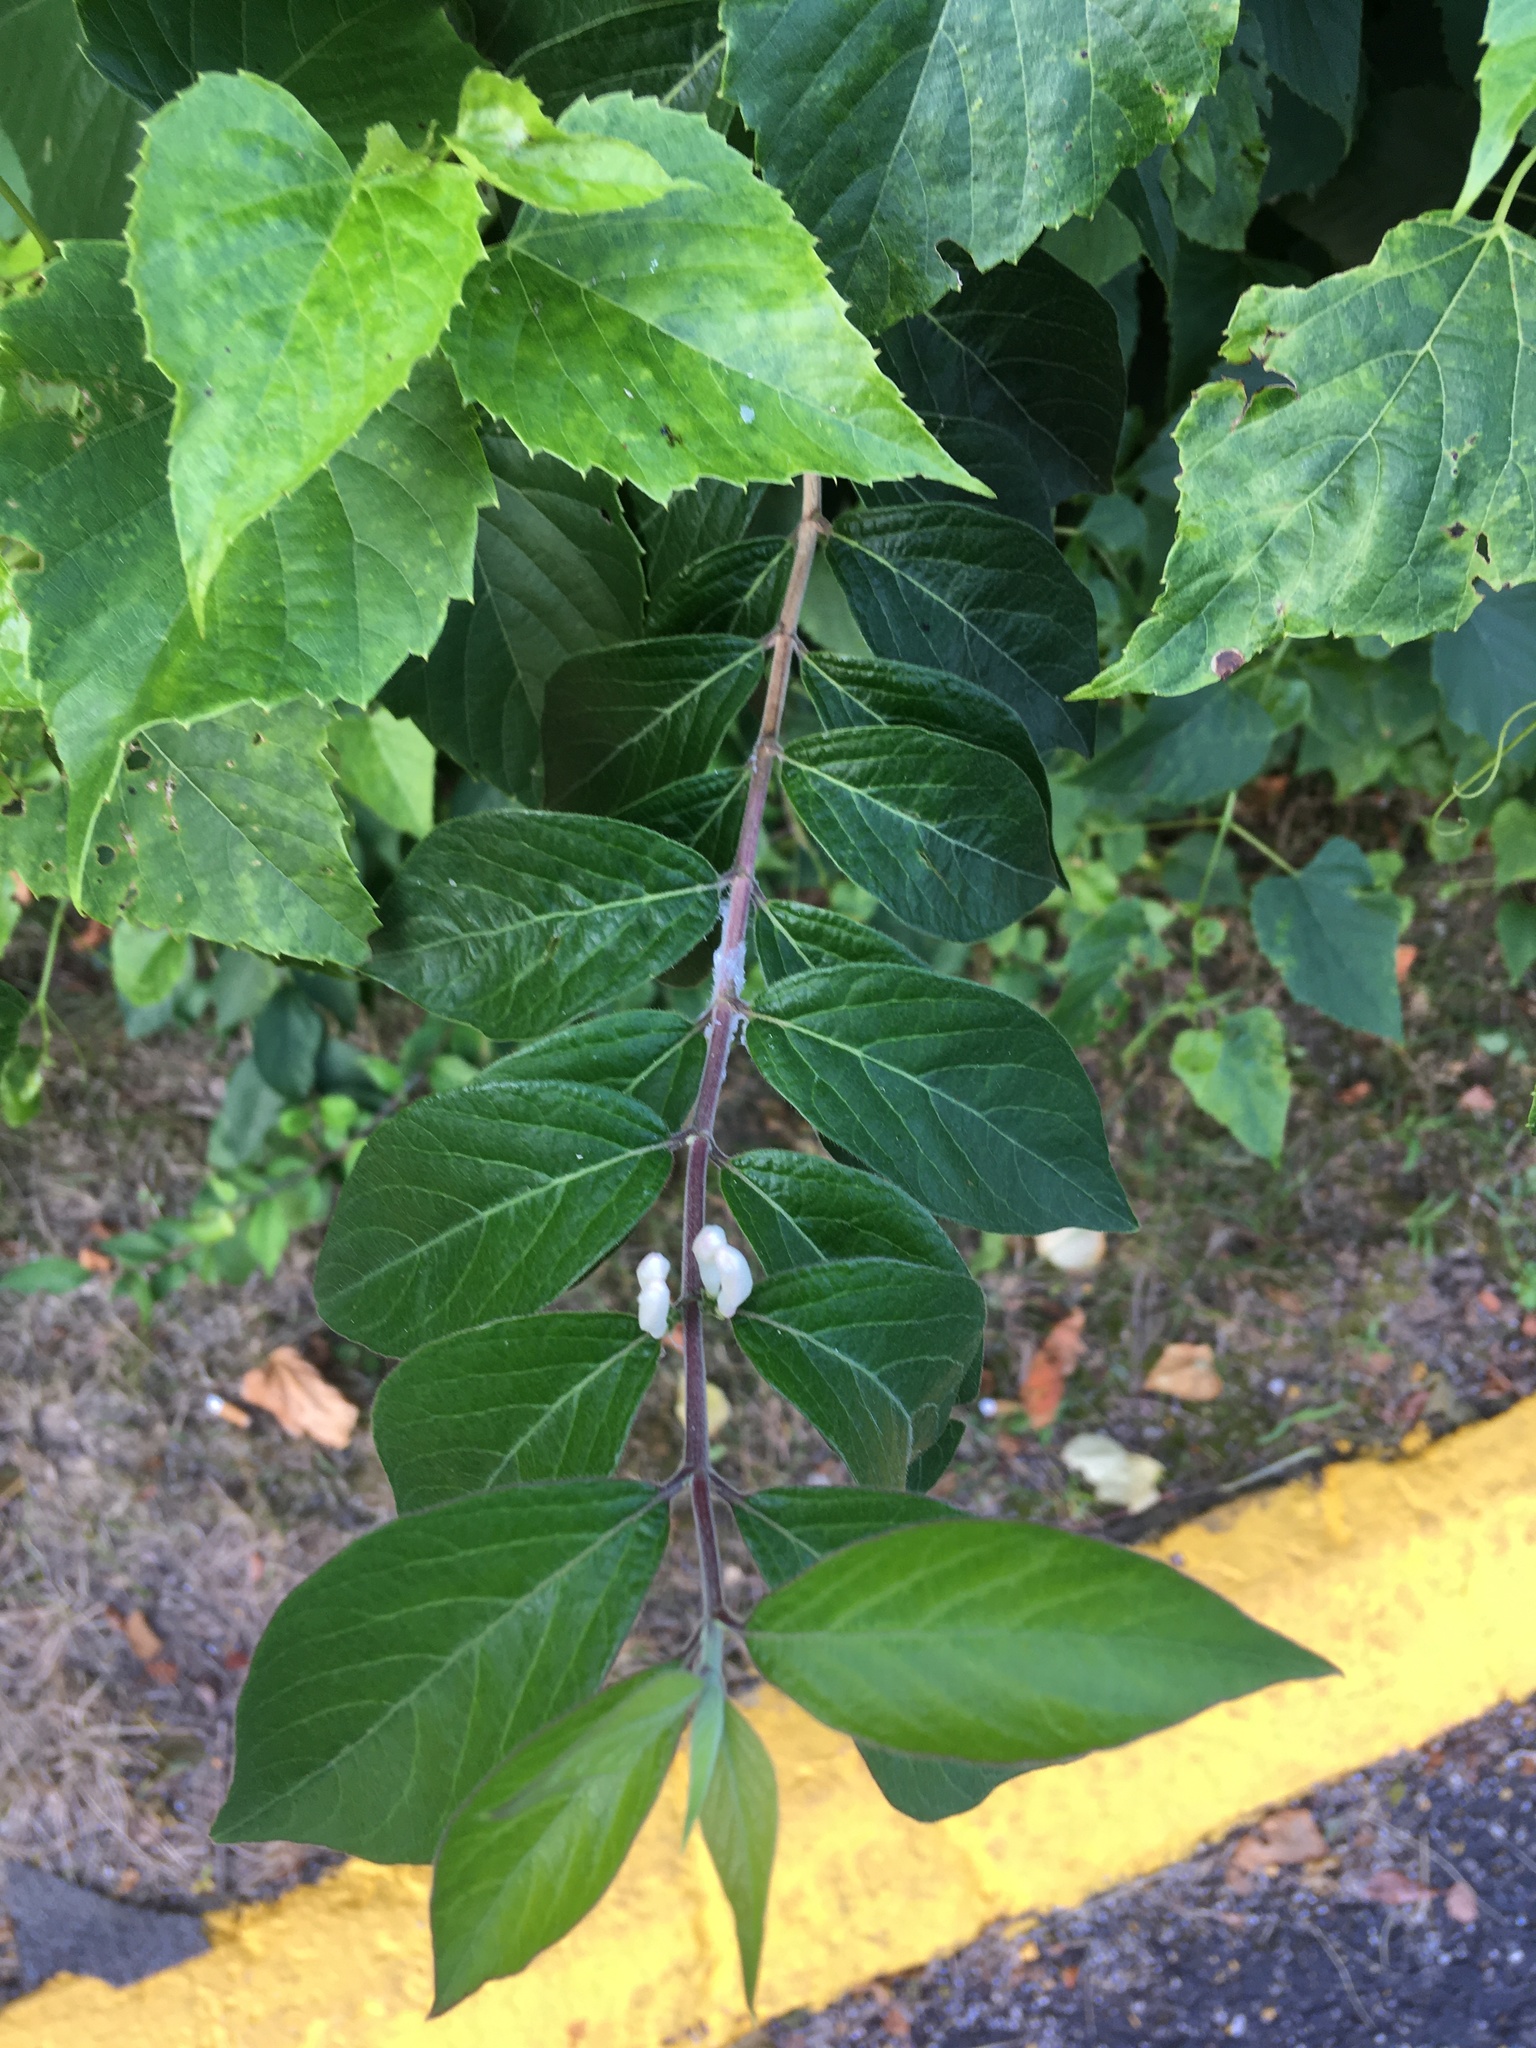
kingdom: Plantae
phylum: Tracheophyta
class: Magnoliopsida
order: Dipsacales
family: Caprifoliaceae
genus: Lonicera
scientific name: Lonicera maackii
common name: Amur honeysuckle
